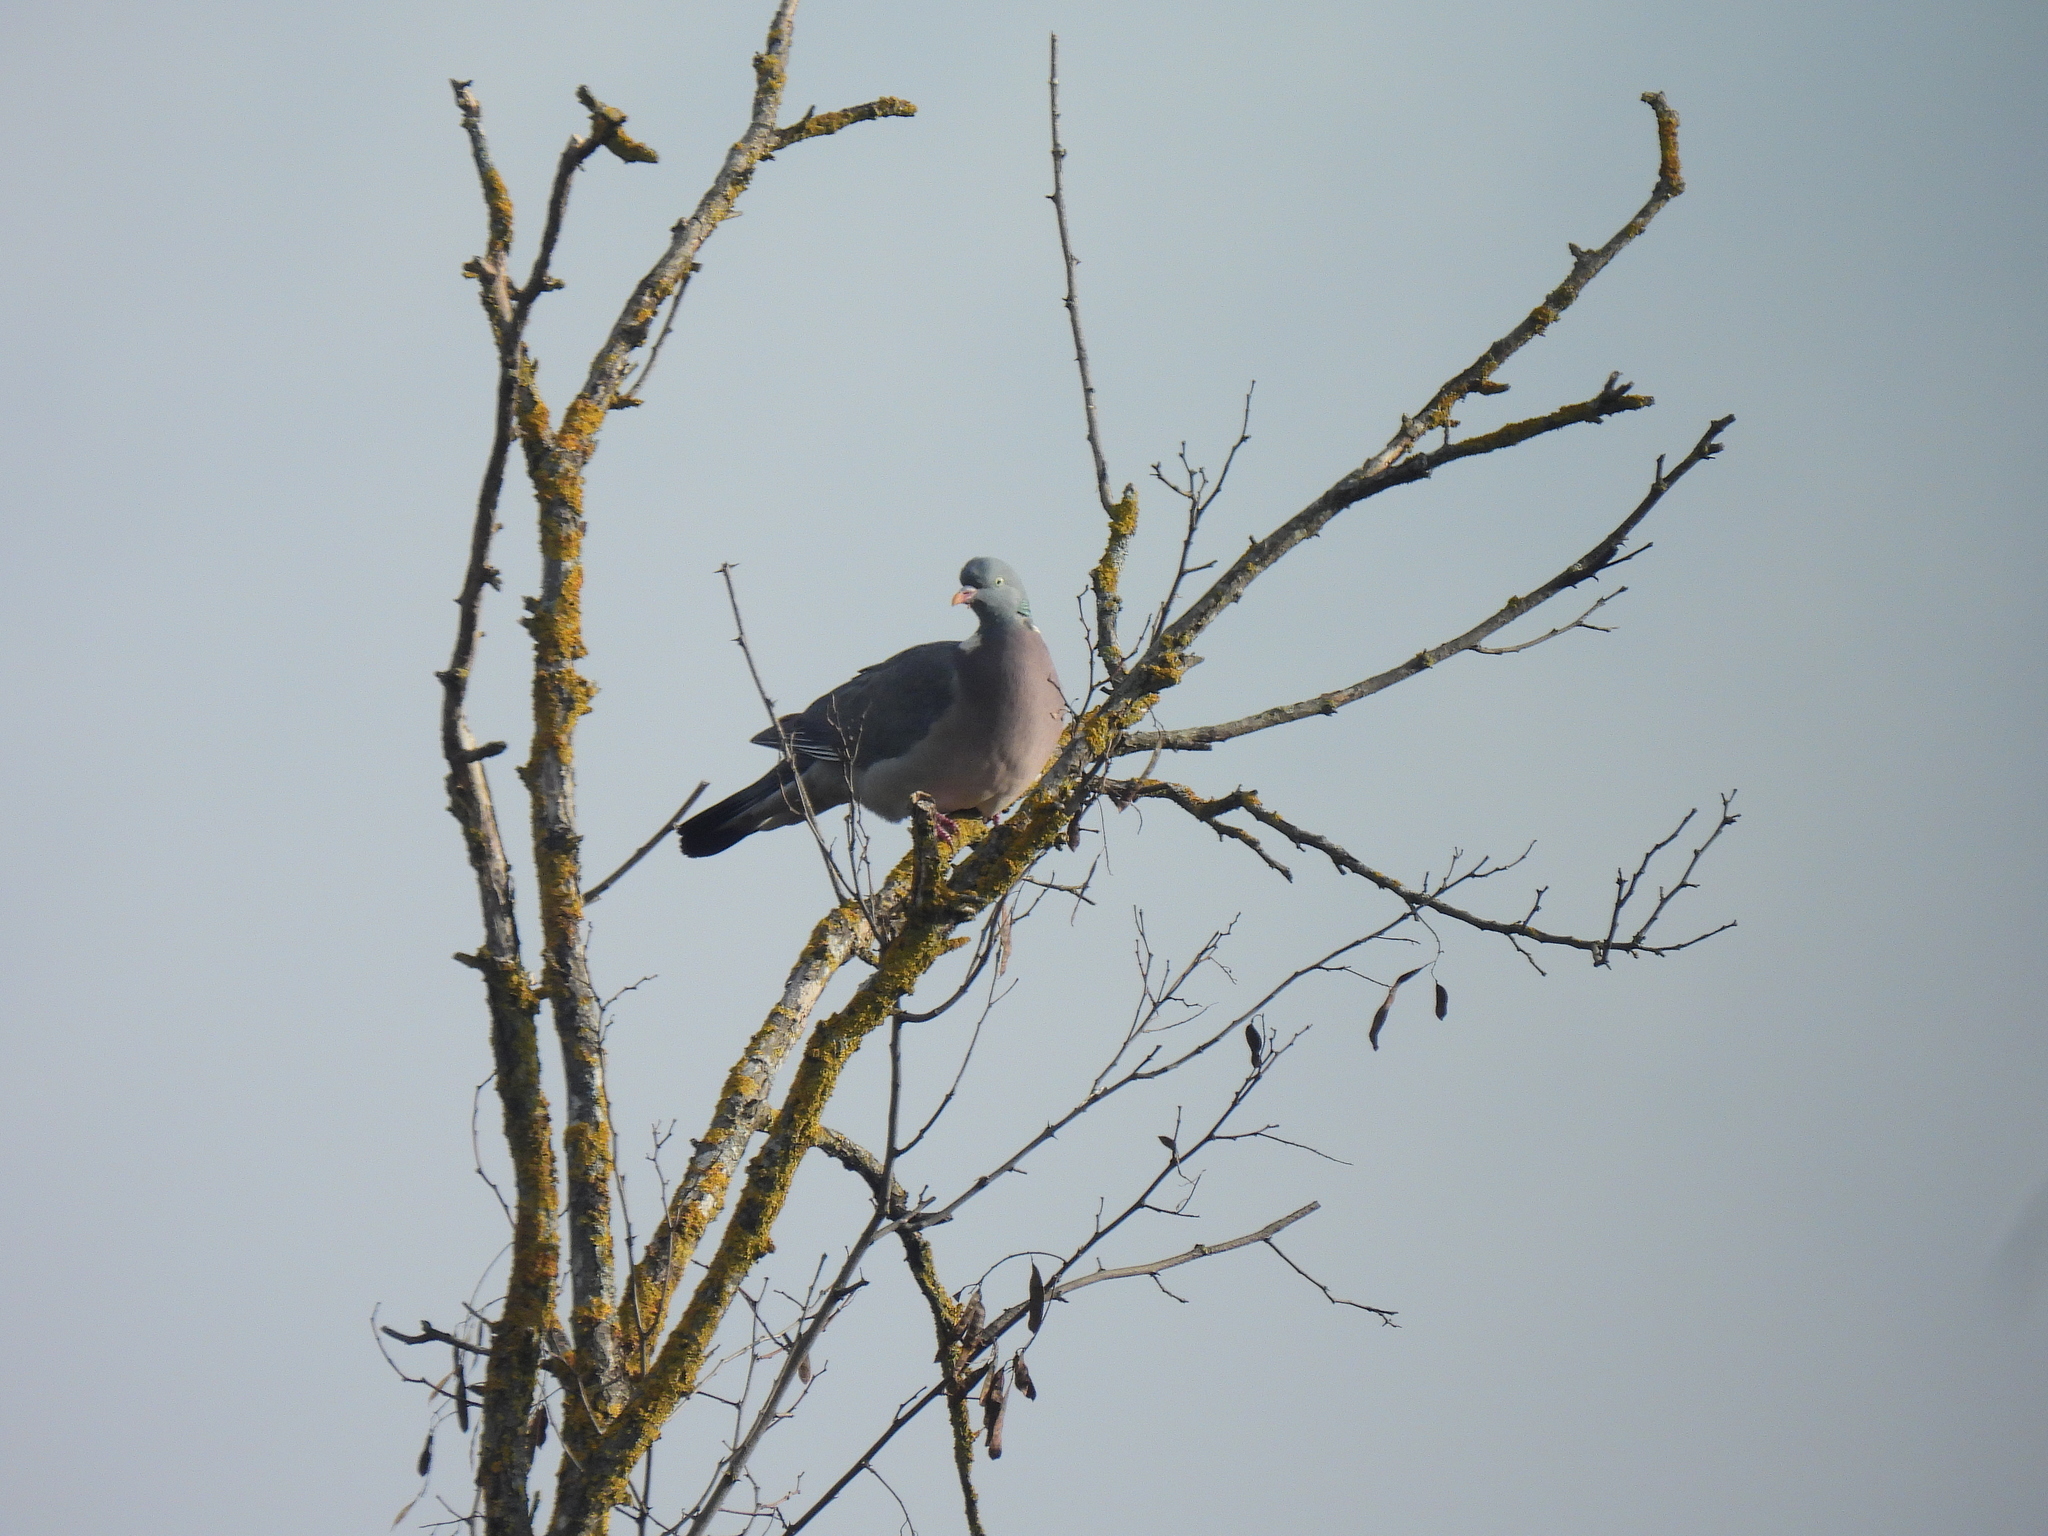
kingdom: Animalia
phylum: Chordata
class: Aves
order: Columbiformes
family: Columbidae
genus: Columba
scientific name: Columba palumbus
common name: Common wood pigeon
